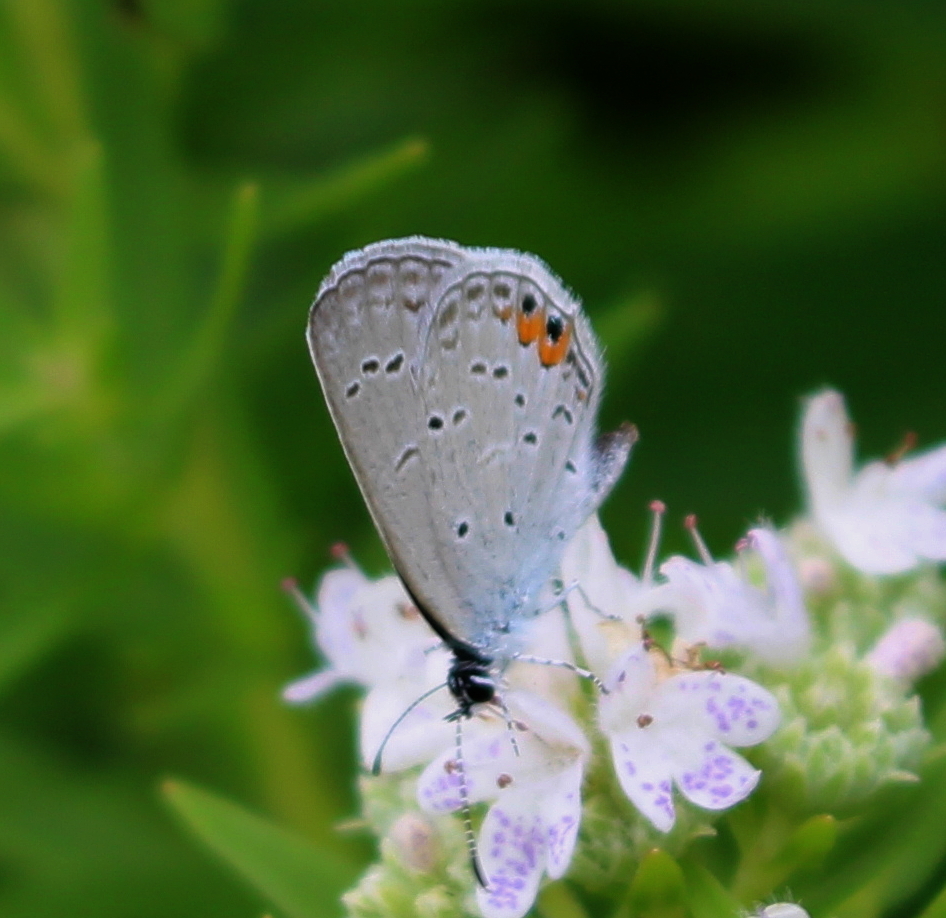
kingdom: Animalia
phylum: Arthropoda
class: Insecta
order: Lepidoptera
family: Lycaenidae
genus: Elkalyce
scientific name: Elkalyce comyntas
